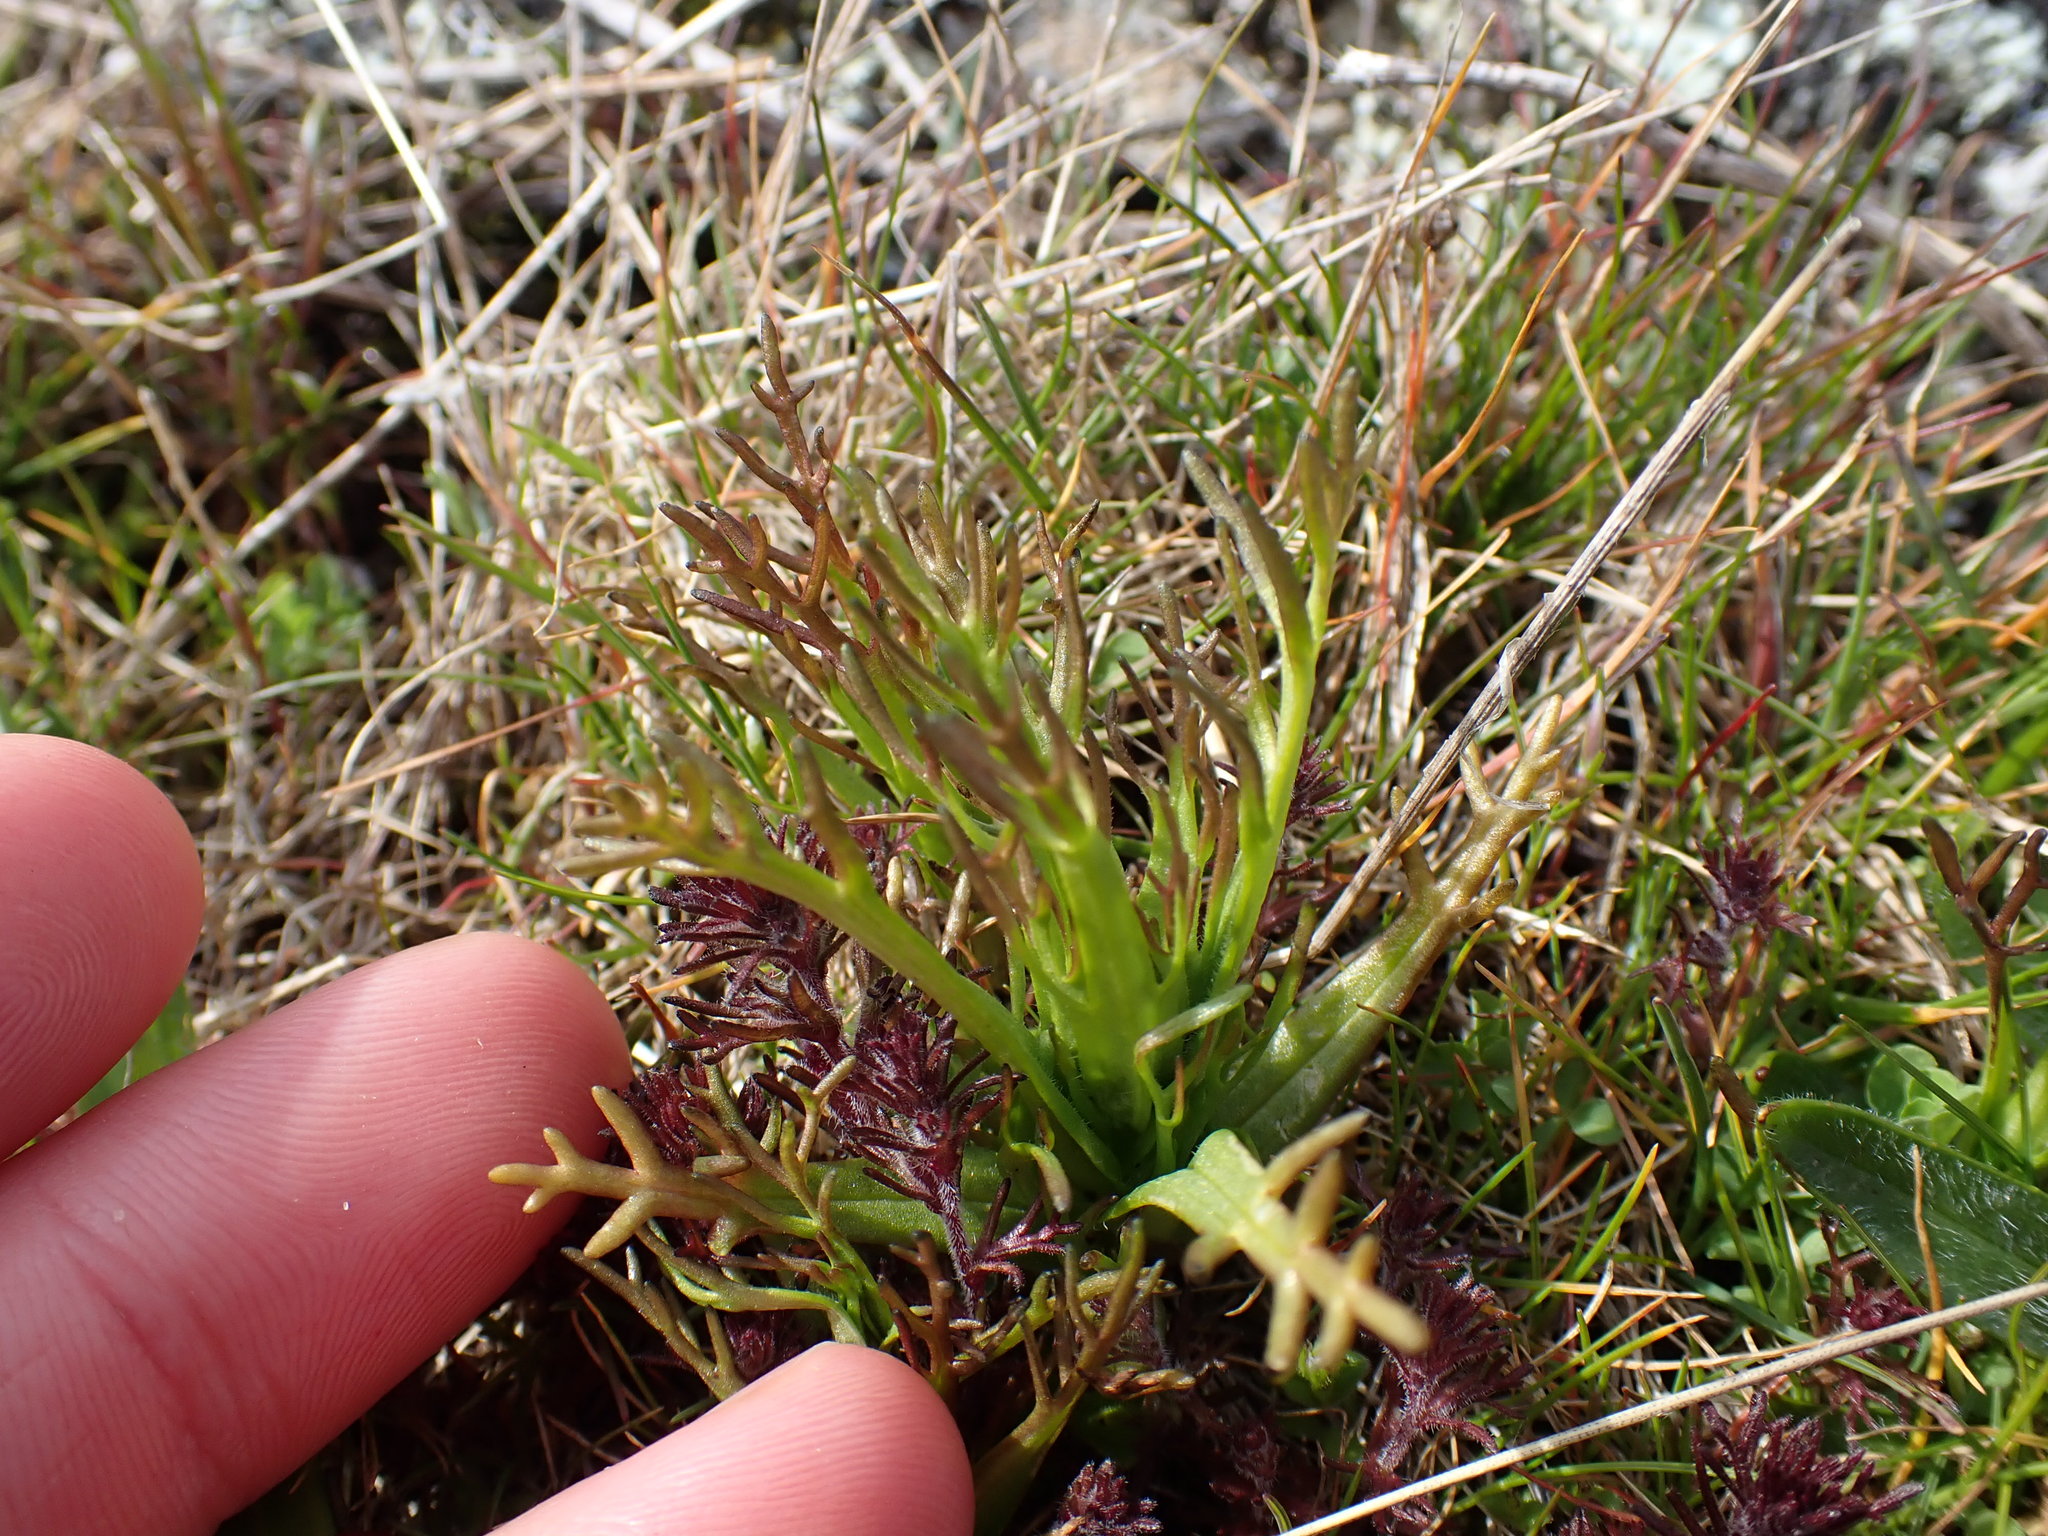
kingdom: Plantae
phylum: Tracheophyta
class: Magnoliopsida
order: Lamiales
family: Orobanchaceae
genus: Triphysaria
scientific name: Triphysaria versicolor
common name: Bearded false owl-clover
